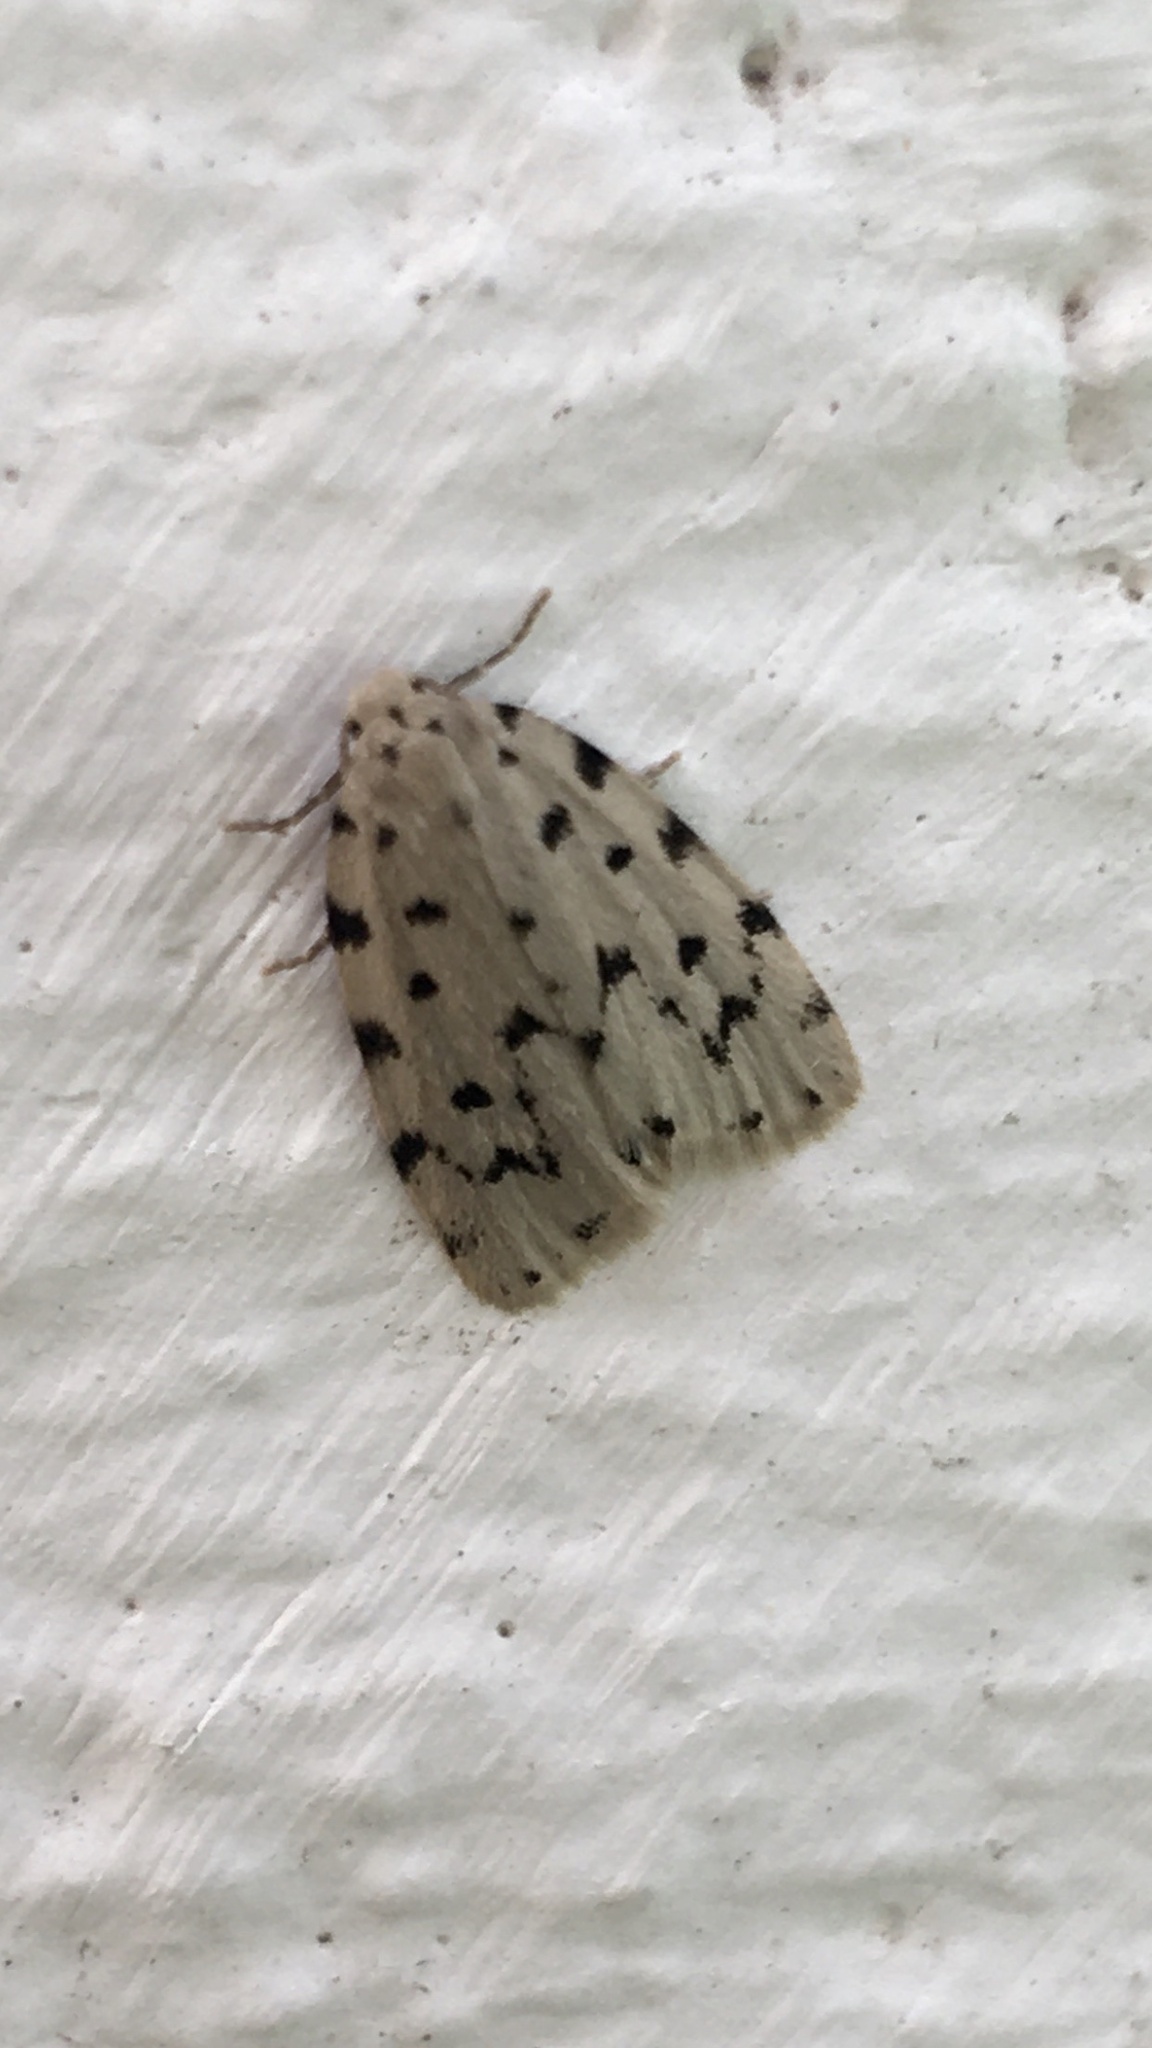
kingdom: Animalia
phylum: Arthropoda
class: Insecta
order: Lepidoptera
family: Erebidae
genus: Siccia
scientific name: Siccia caffra
